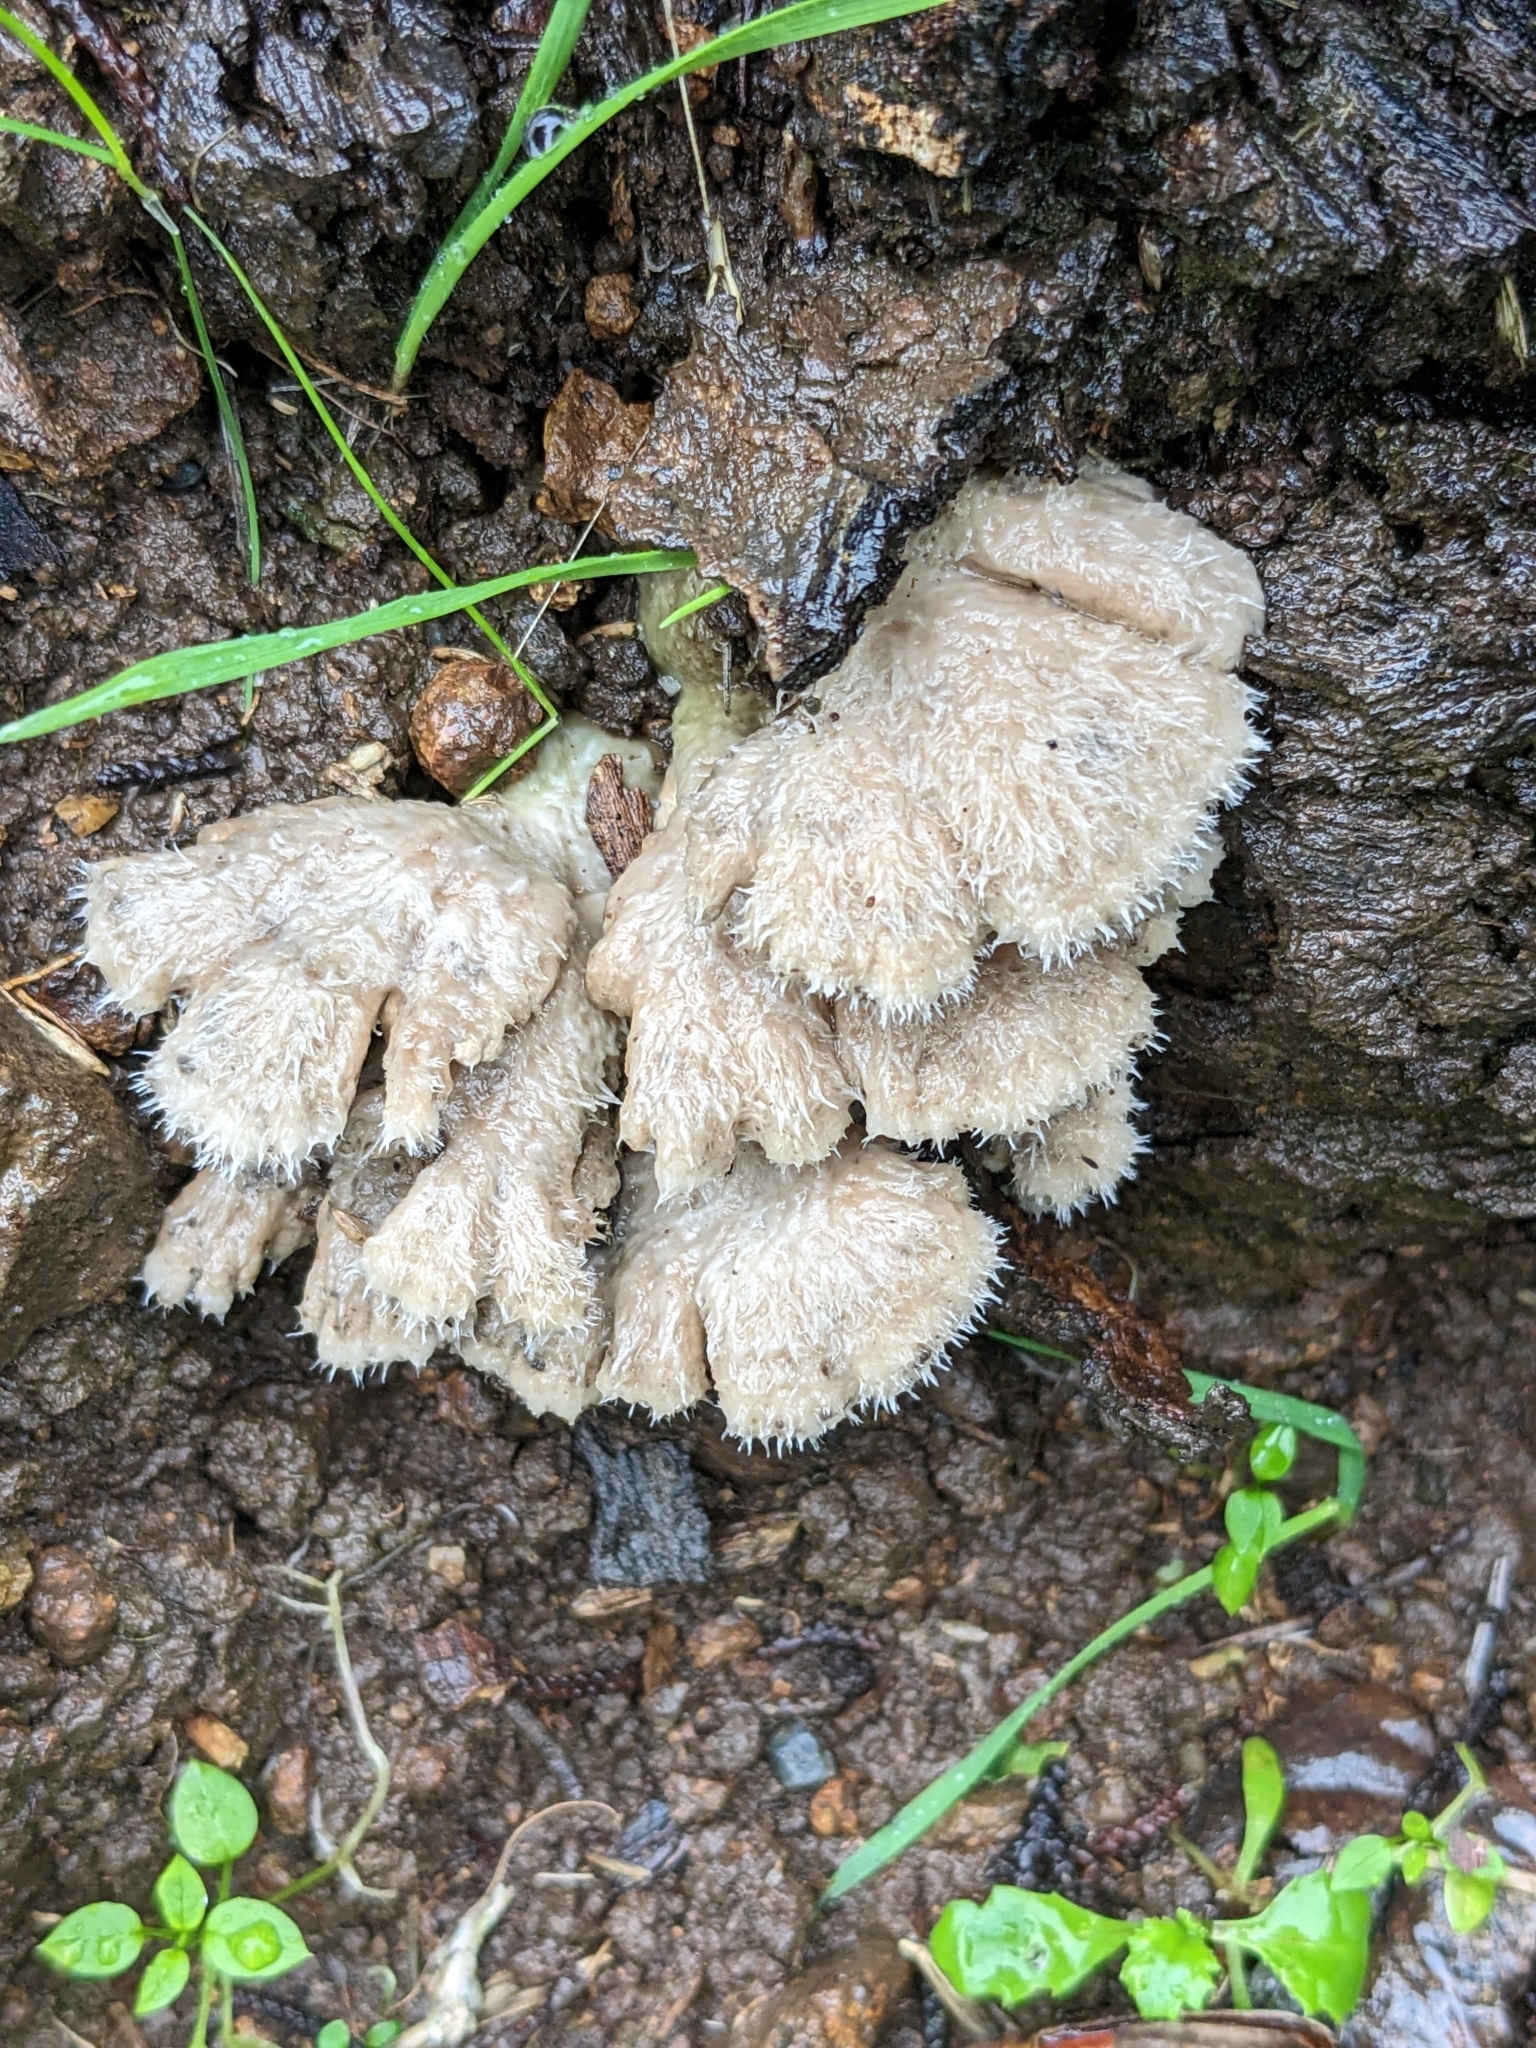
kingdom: Fungi
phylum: Basidiomycota
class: Agaricomycetes
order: Agaricales
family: Schizophyllaceae
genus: Schizophyllum
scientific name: Schizophyllum commune
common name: Common porecrust
